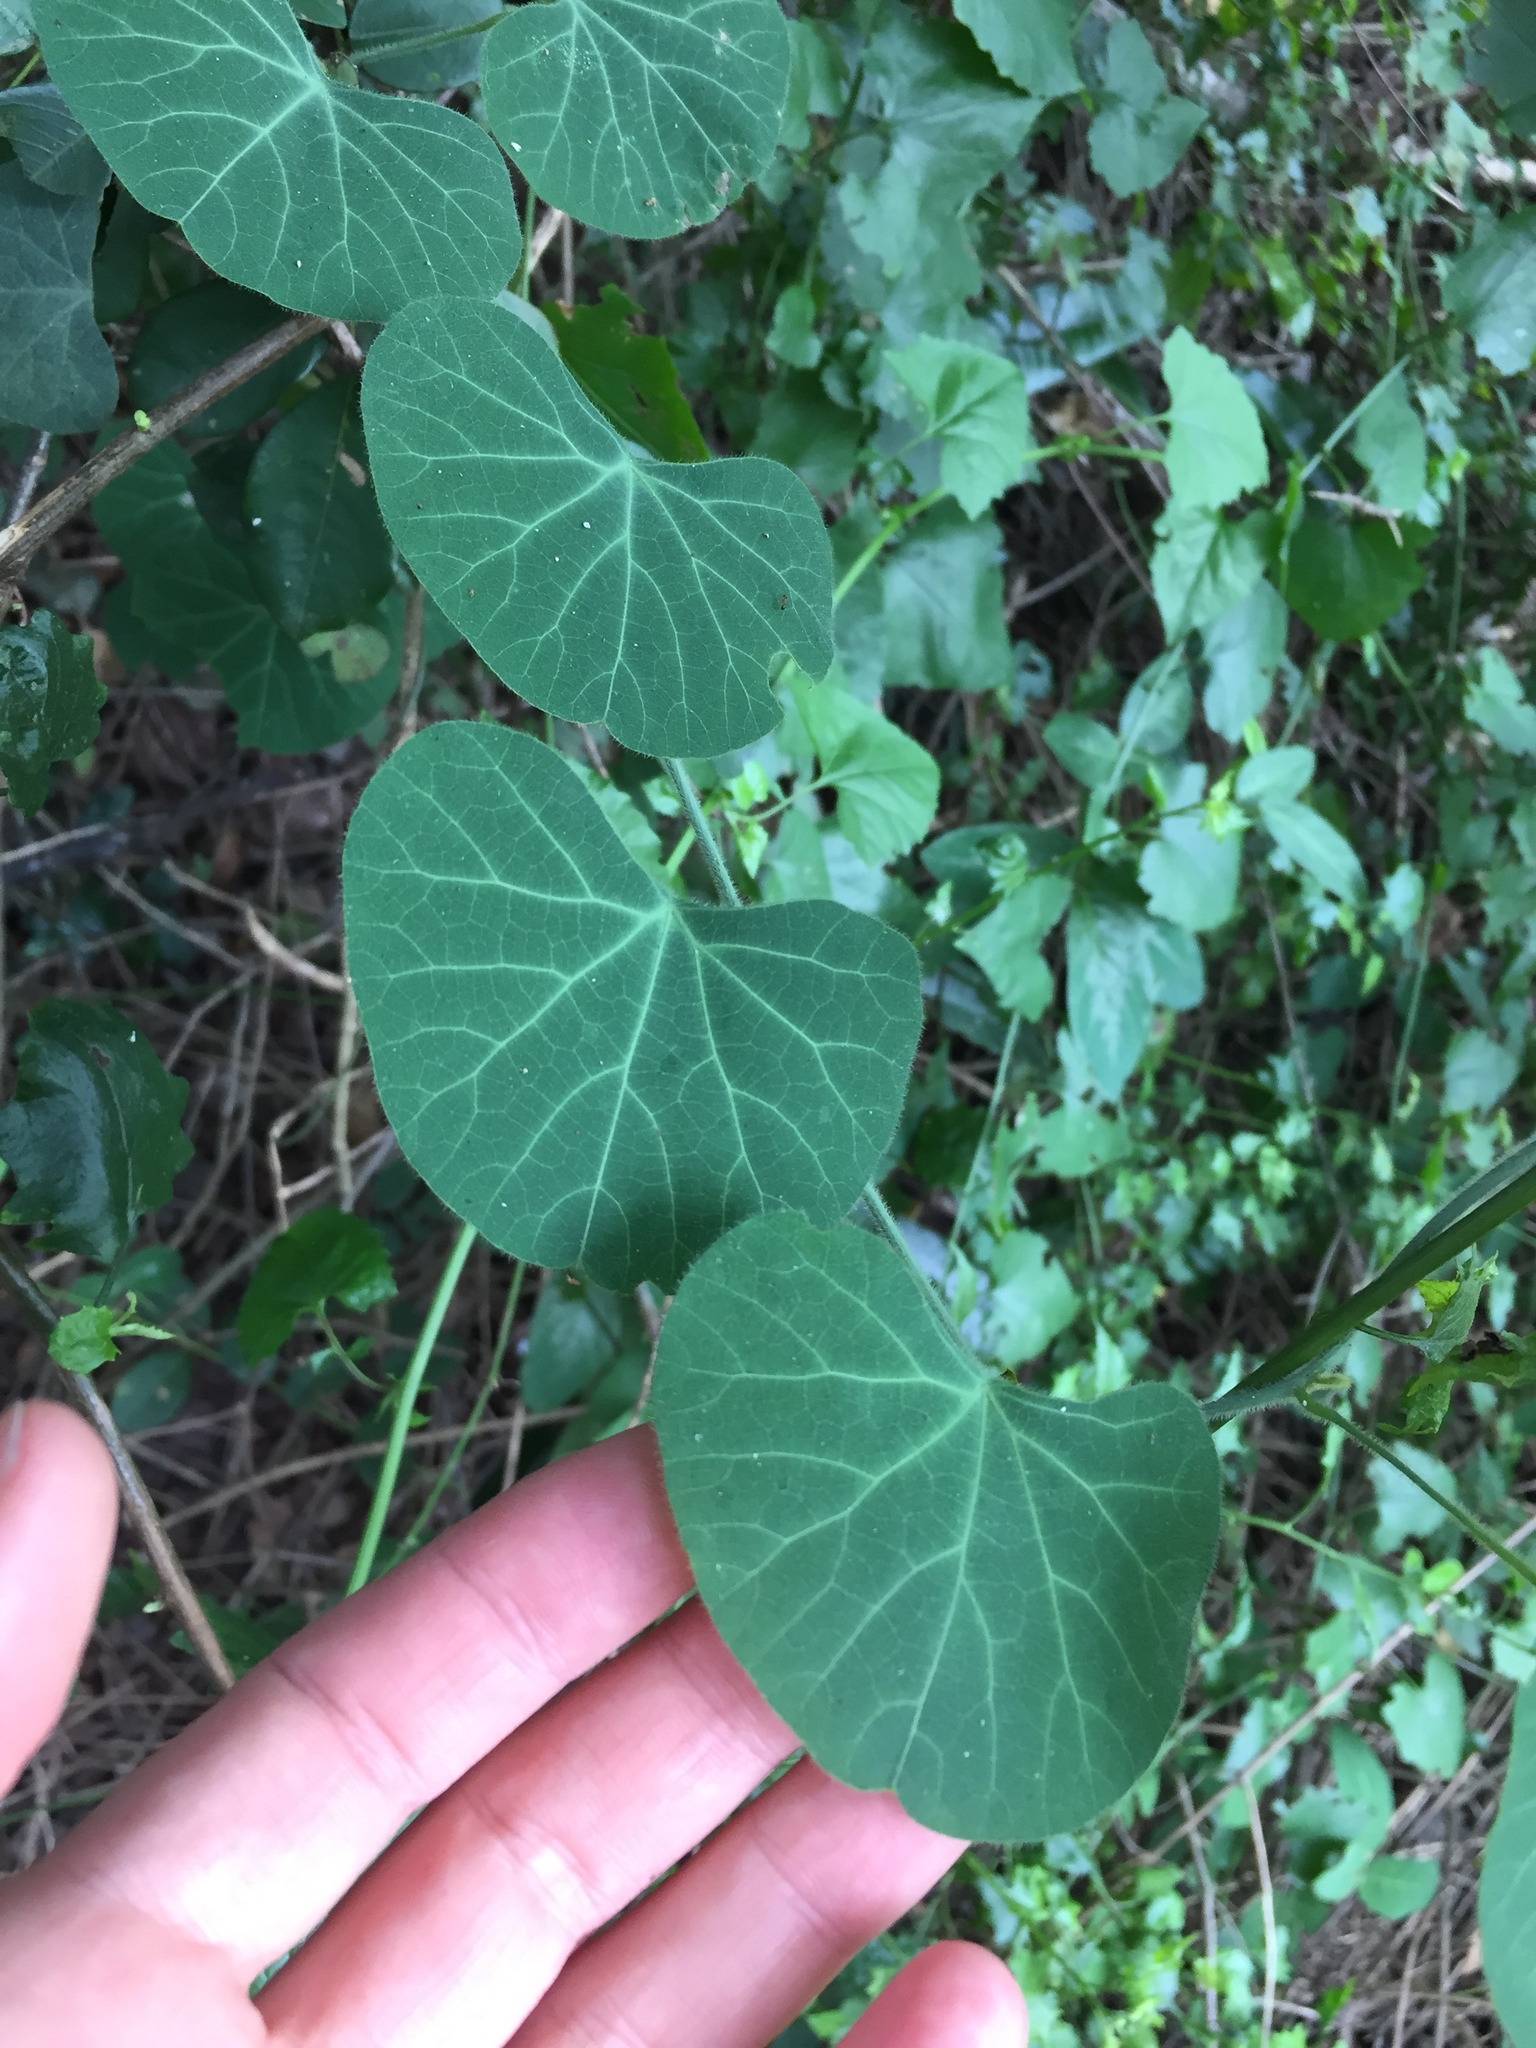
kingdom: Plantae
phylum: Tracheophyta
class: Magnoliopsida
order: Ranunculales
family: Menispermaceae
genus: Cissampelos
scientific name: Cissampelos torulosa
